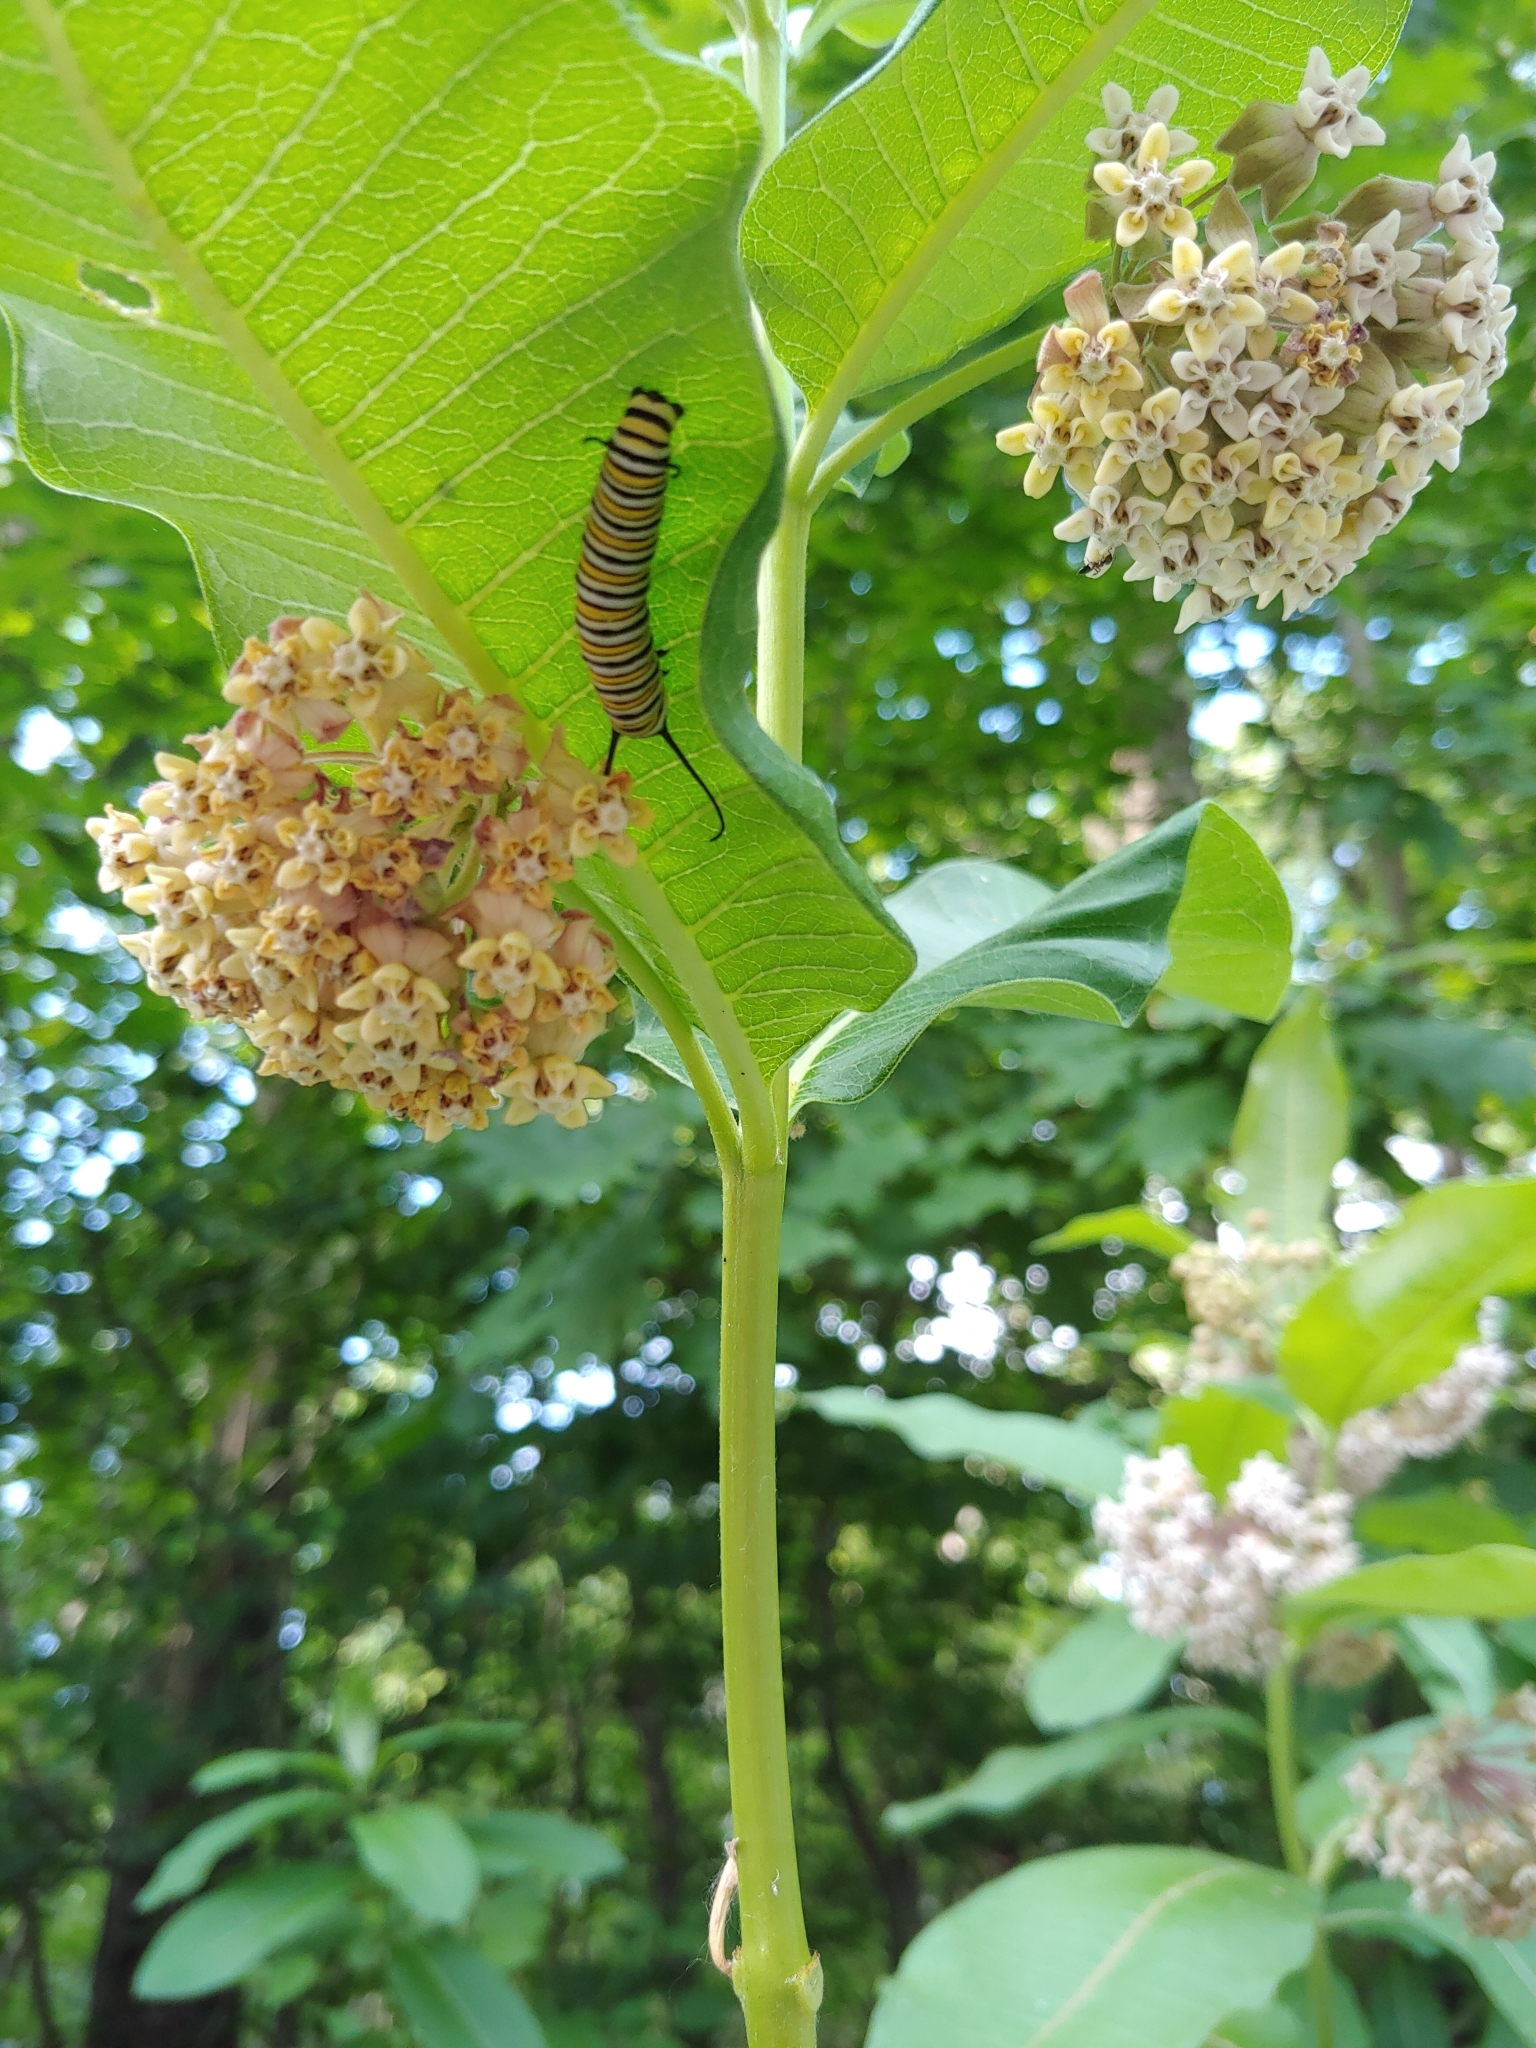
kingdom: Animalia
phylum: Arthropoda
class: Insecta
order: Lepidoptera
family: Nymphalidae
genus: Danaus
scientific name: Danaus plexippus
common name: Monarch
